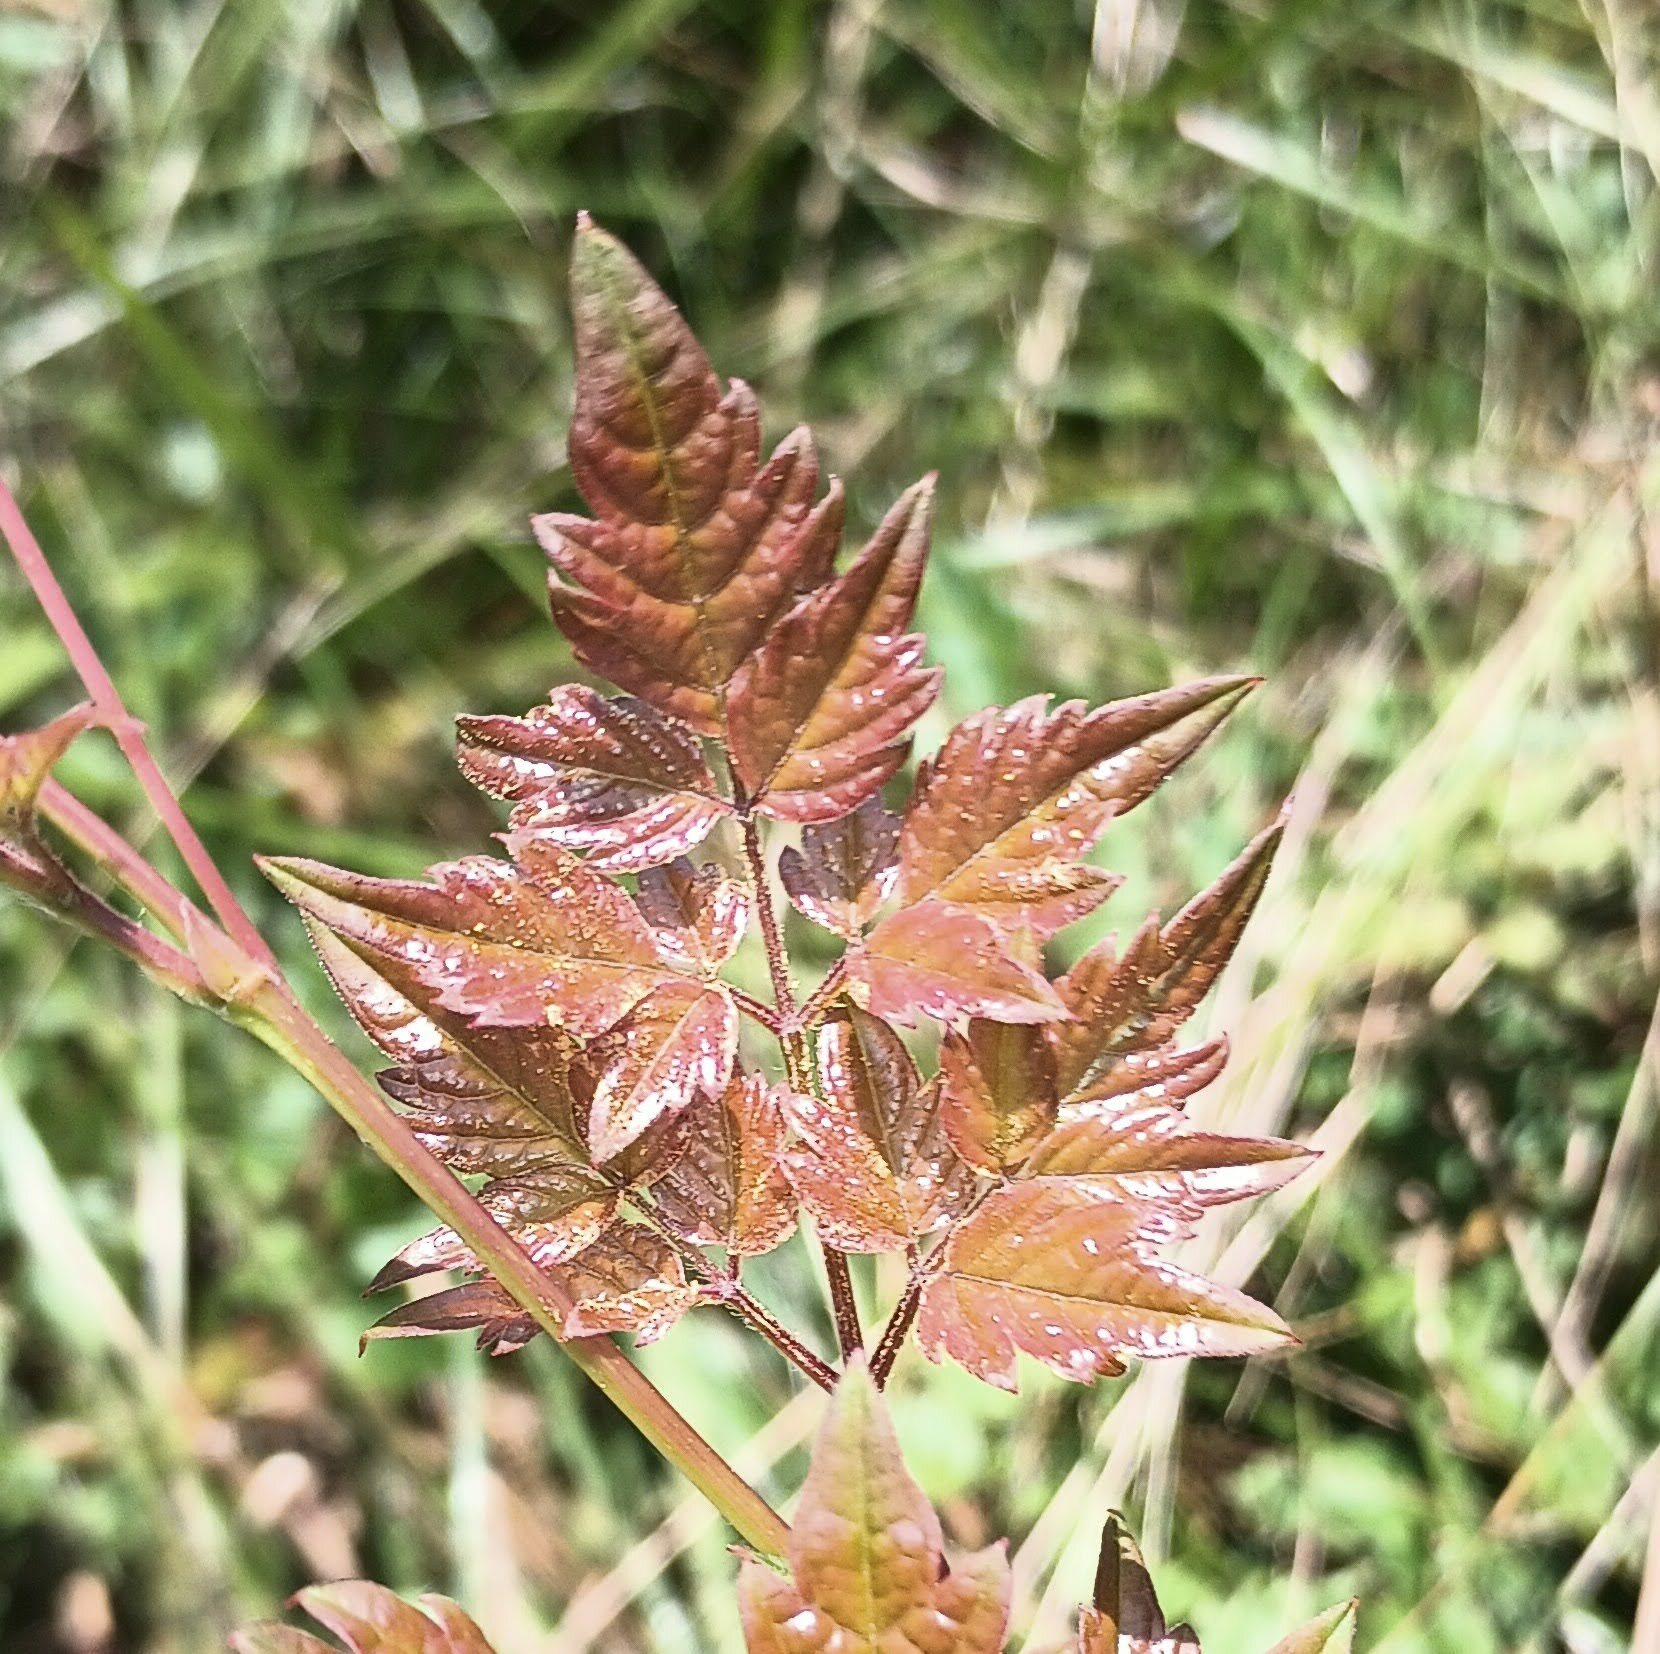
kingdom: Plantae
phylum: Tracheophyta
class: Magnoliopsida
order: Vitales
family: Vitaceae
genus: Nekemias
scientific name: Nekemias arborea
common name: Peppervine
